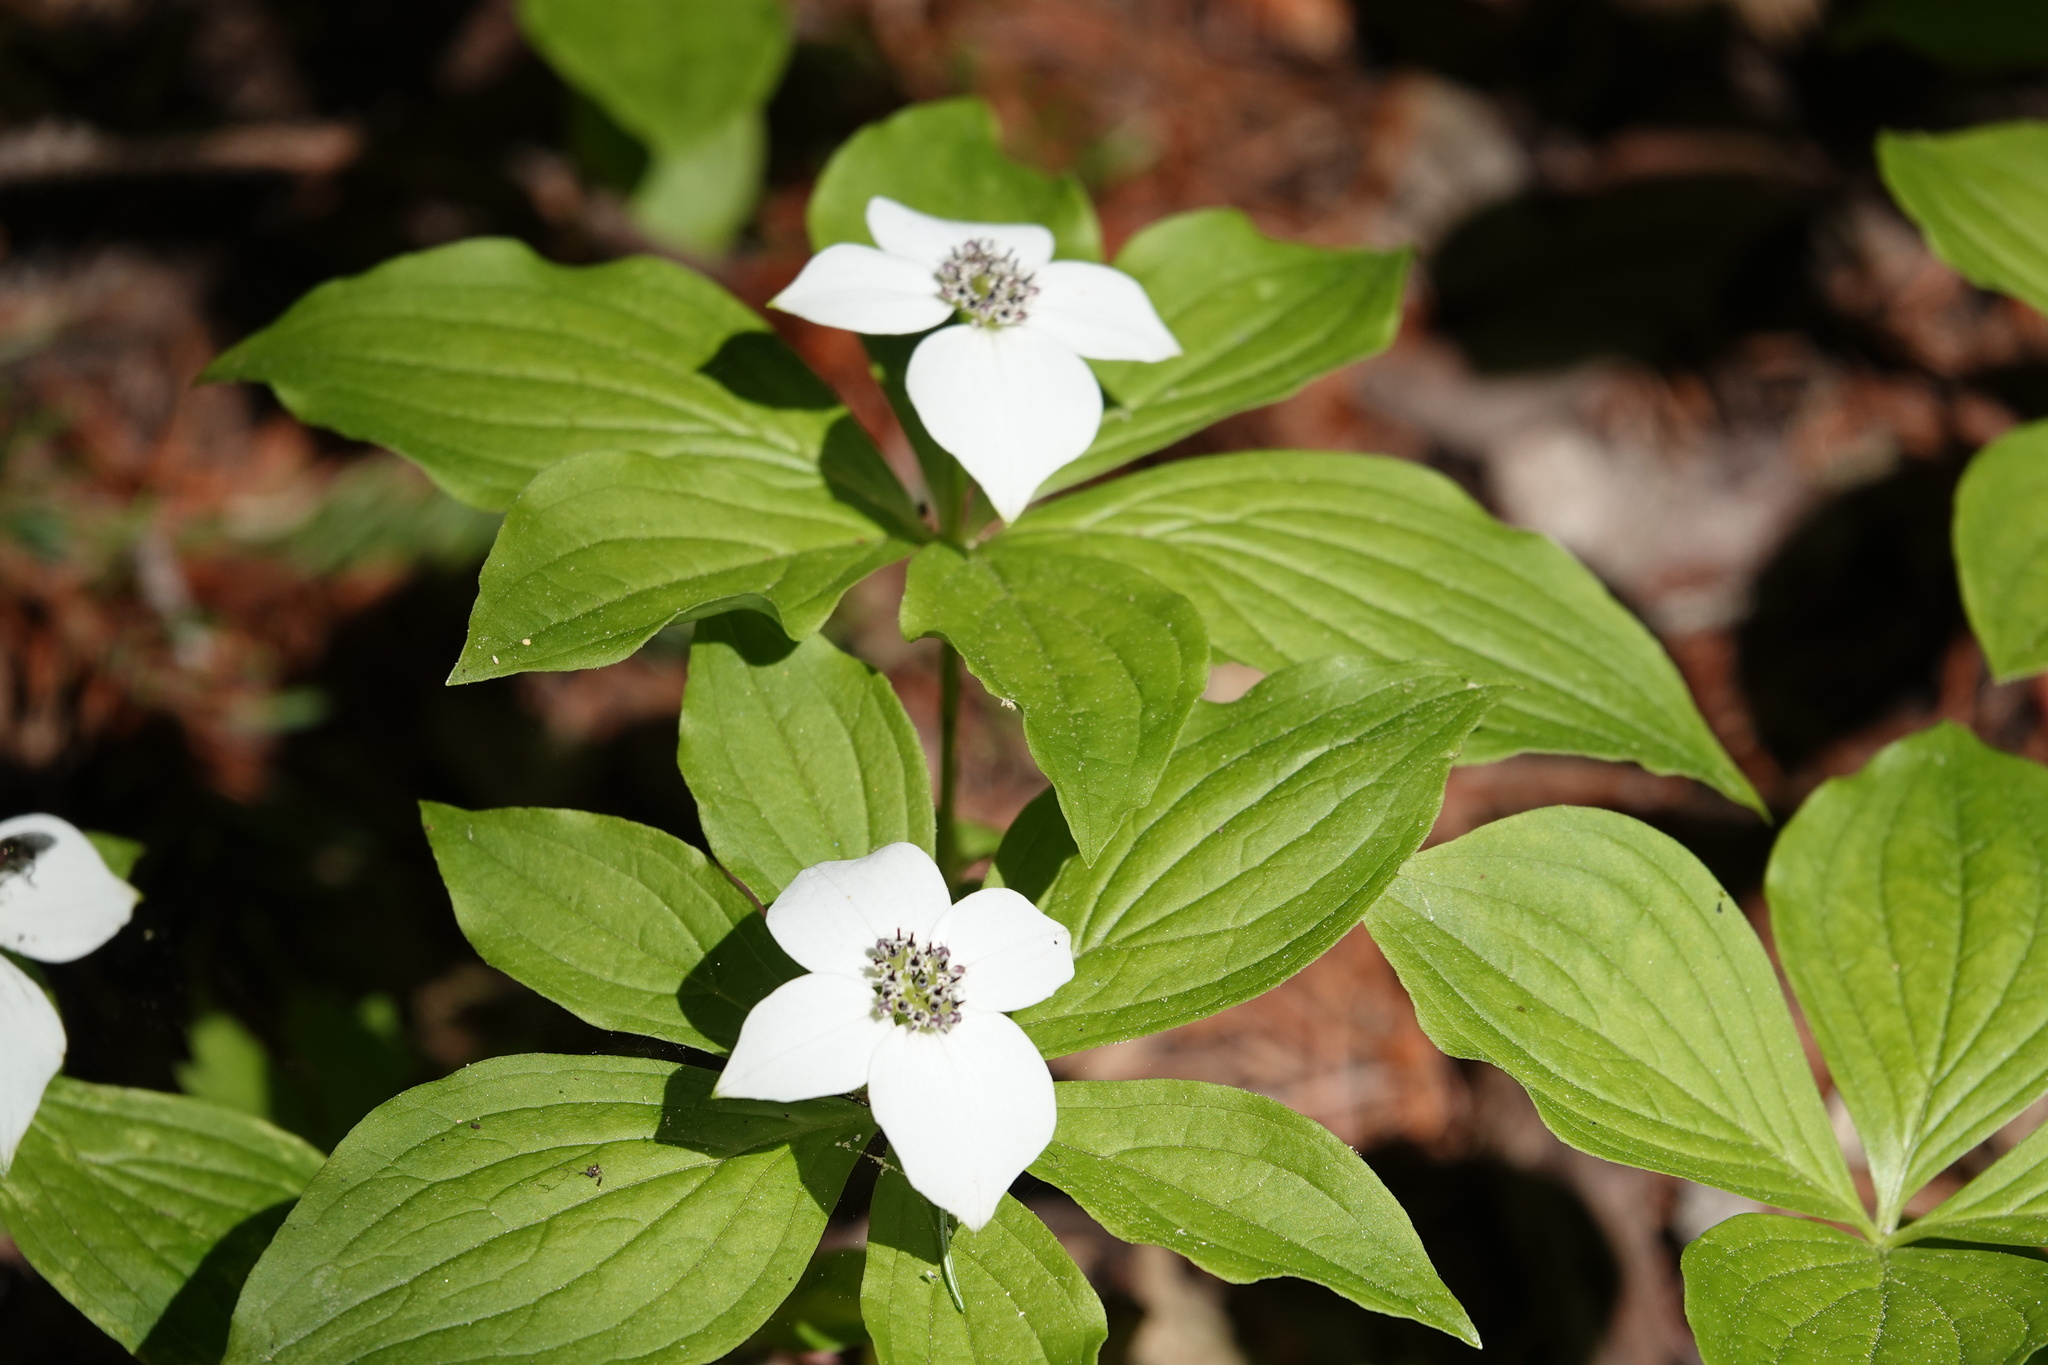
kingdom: Plantae
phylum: Tracheophyta
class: Magnoliopsida
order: Cornales
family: Cornaceae
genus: Cornus
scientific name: Cornus unalaschkensis
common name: Alaska bunchberry
